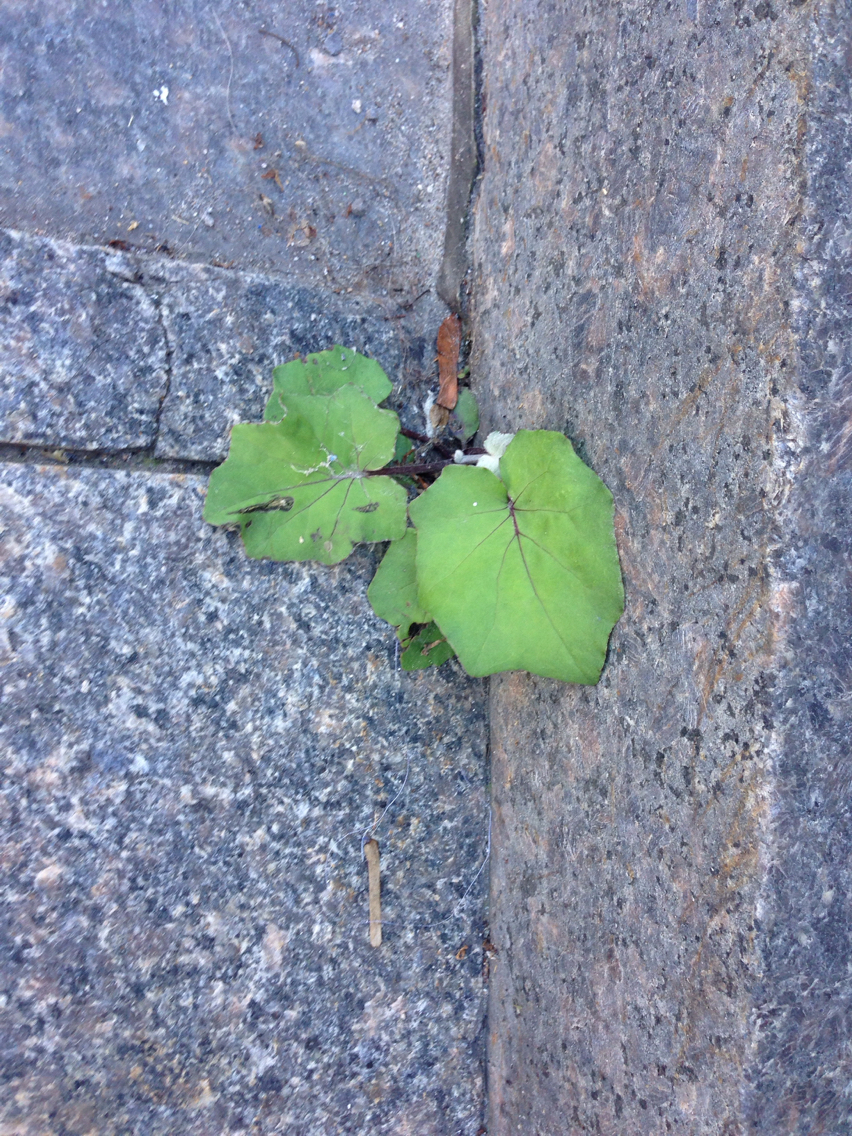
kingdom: Plantae
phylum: Tracheophyta
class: Magnoliopsida
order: Asterales
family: Asteraceae
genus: Tussilago
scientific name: Tussilago farfara
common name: Coltsfoot
